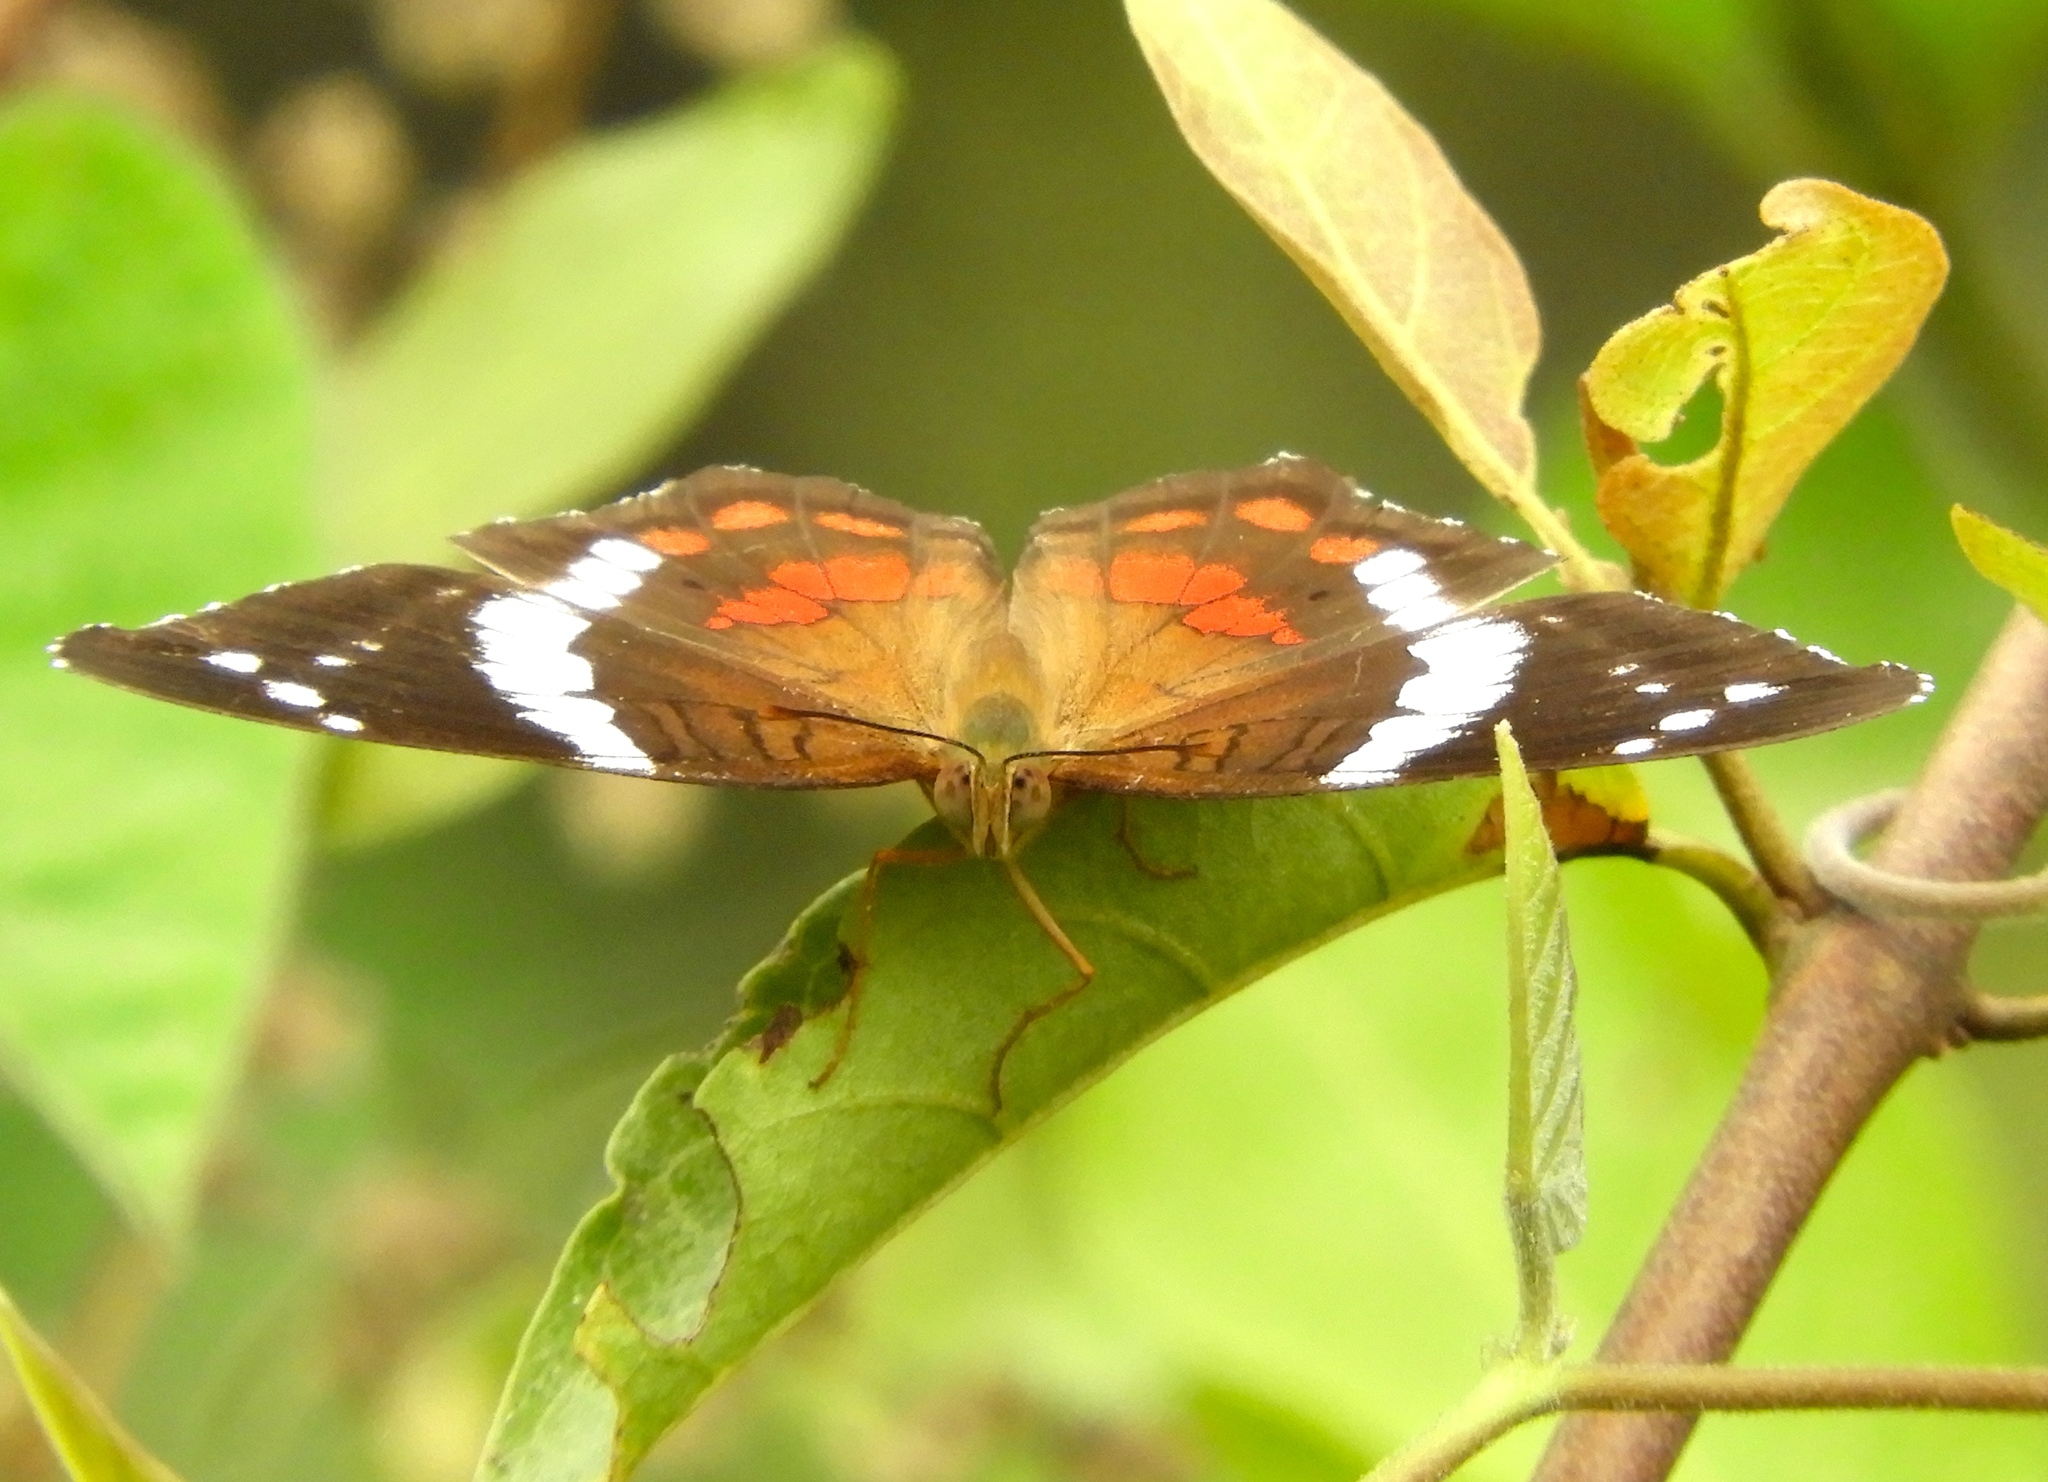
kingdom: Animalia
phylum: Arthropoda
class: Insecta
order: Lepidoptera
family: Nymphalidae
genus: Anartia
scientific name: Anartia fatima
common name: Banded peacock
